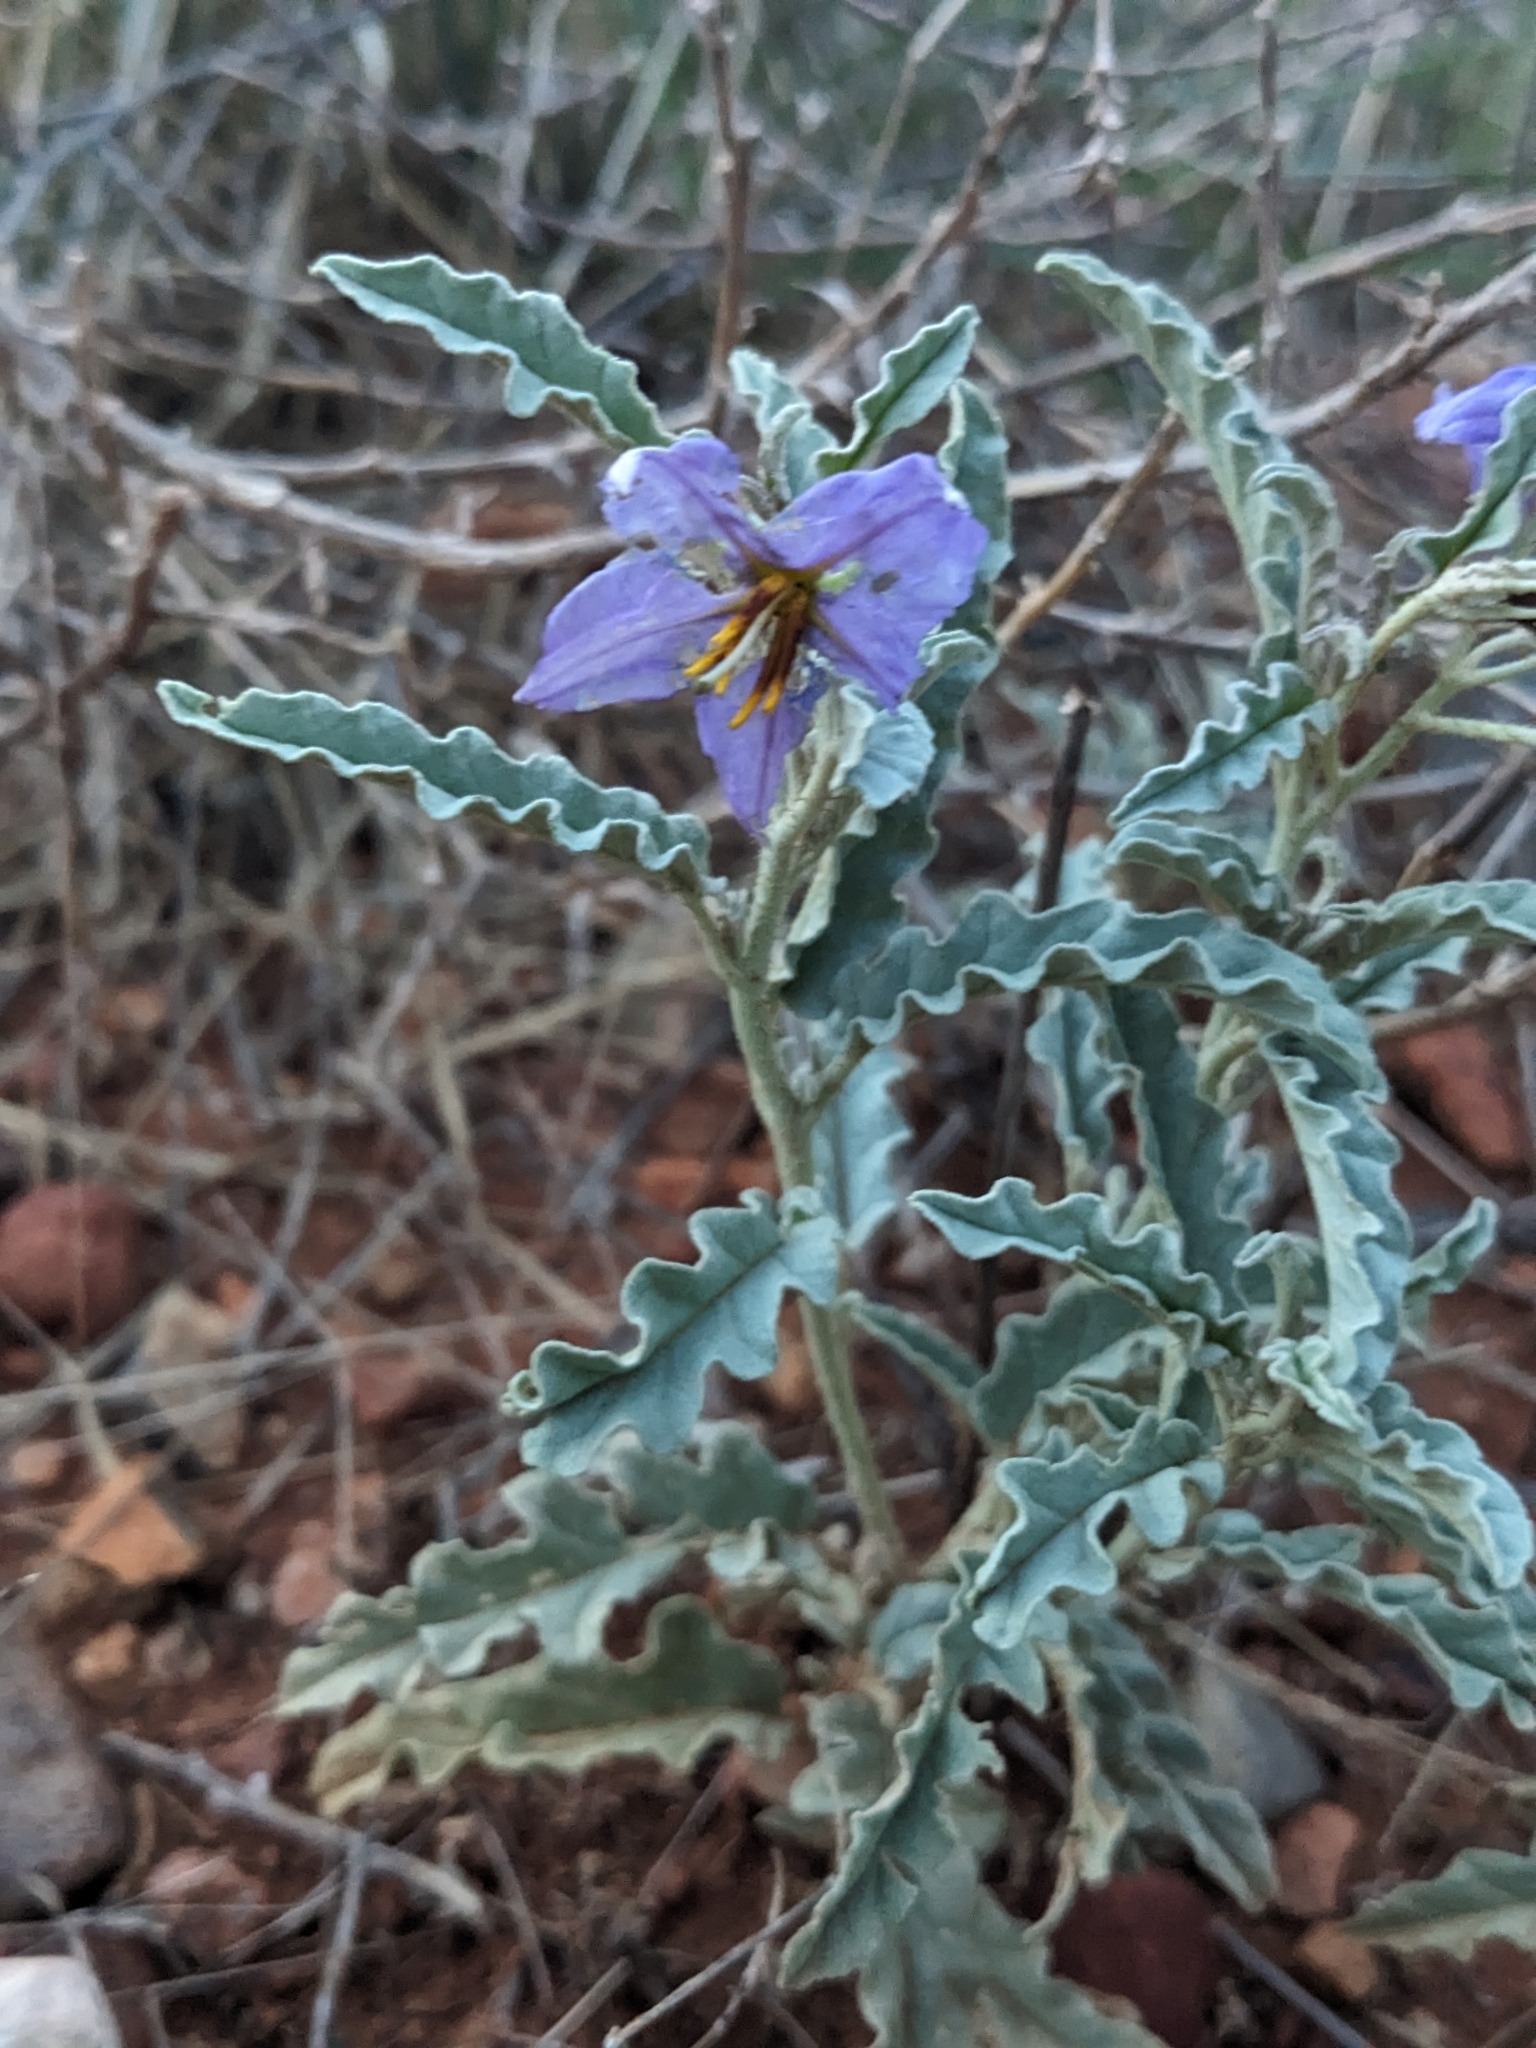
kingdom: Plantae
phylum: Tracheophyta
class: Magnoliopsida
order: Solanales
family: Solanaceae
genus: Solanum
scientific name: Solanum elaeagnifolium
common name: Silverleaf nightshade
